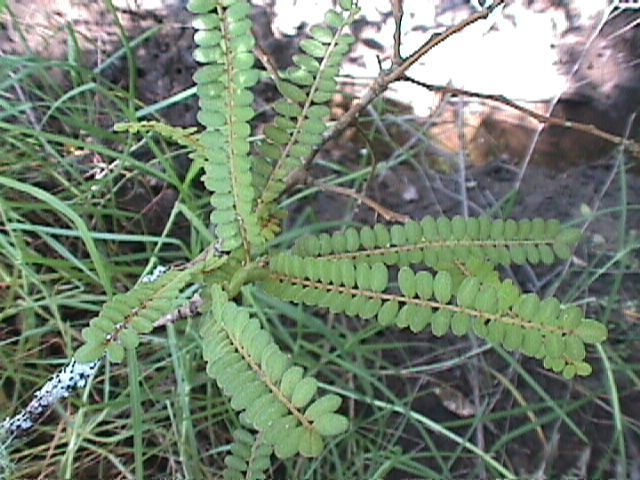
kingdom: Plantae
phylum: Tracheophyta
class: Magnoliopsida
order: Fabales
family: Fabaceae
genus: Sophora
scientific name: Sophora chathamica
